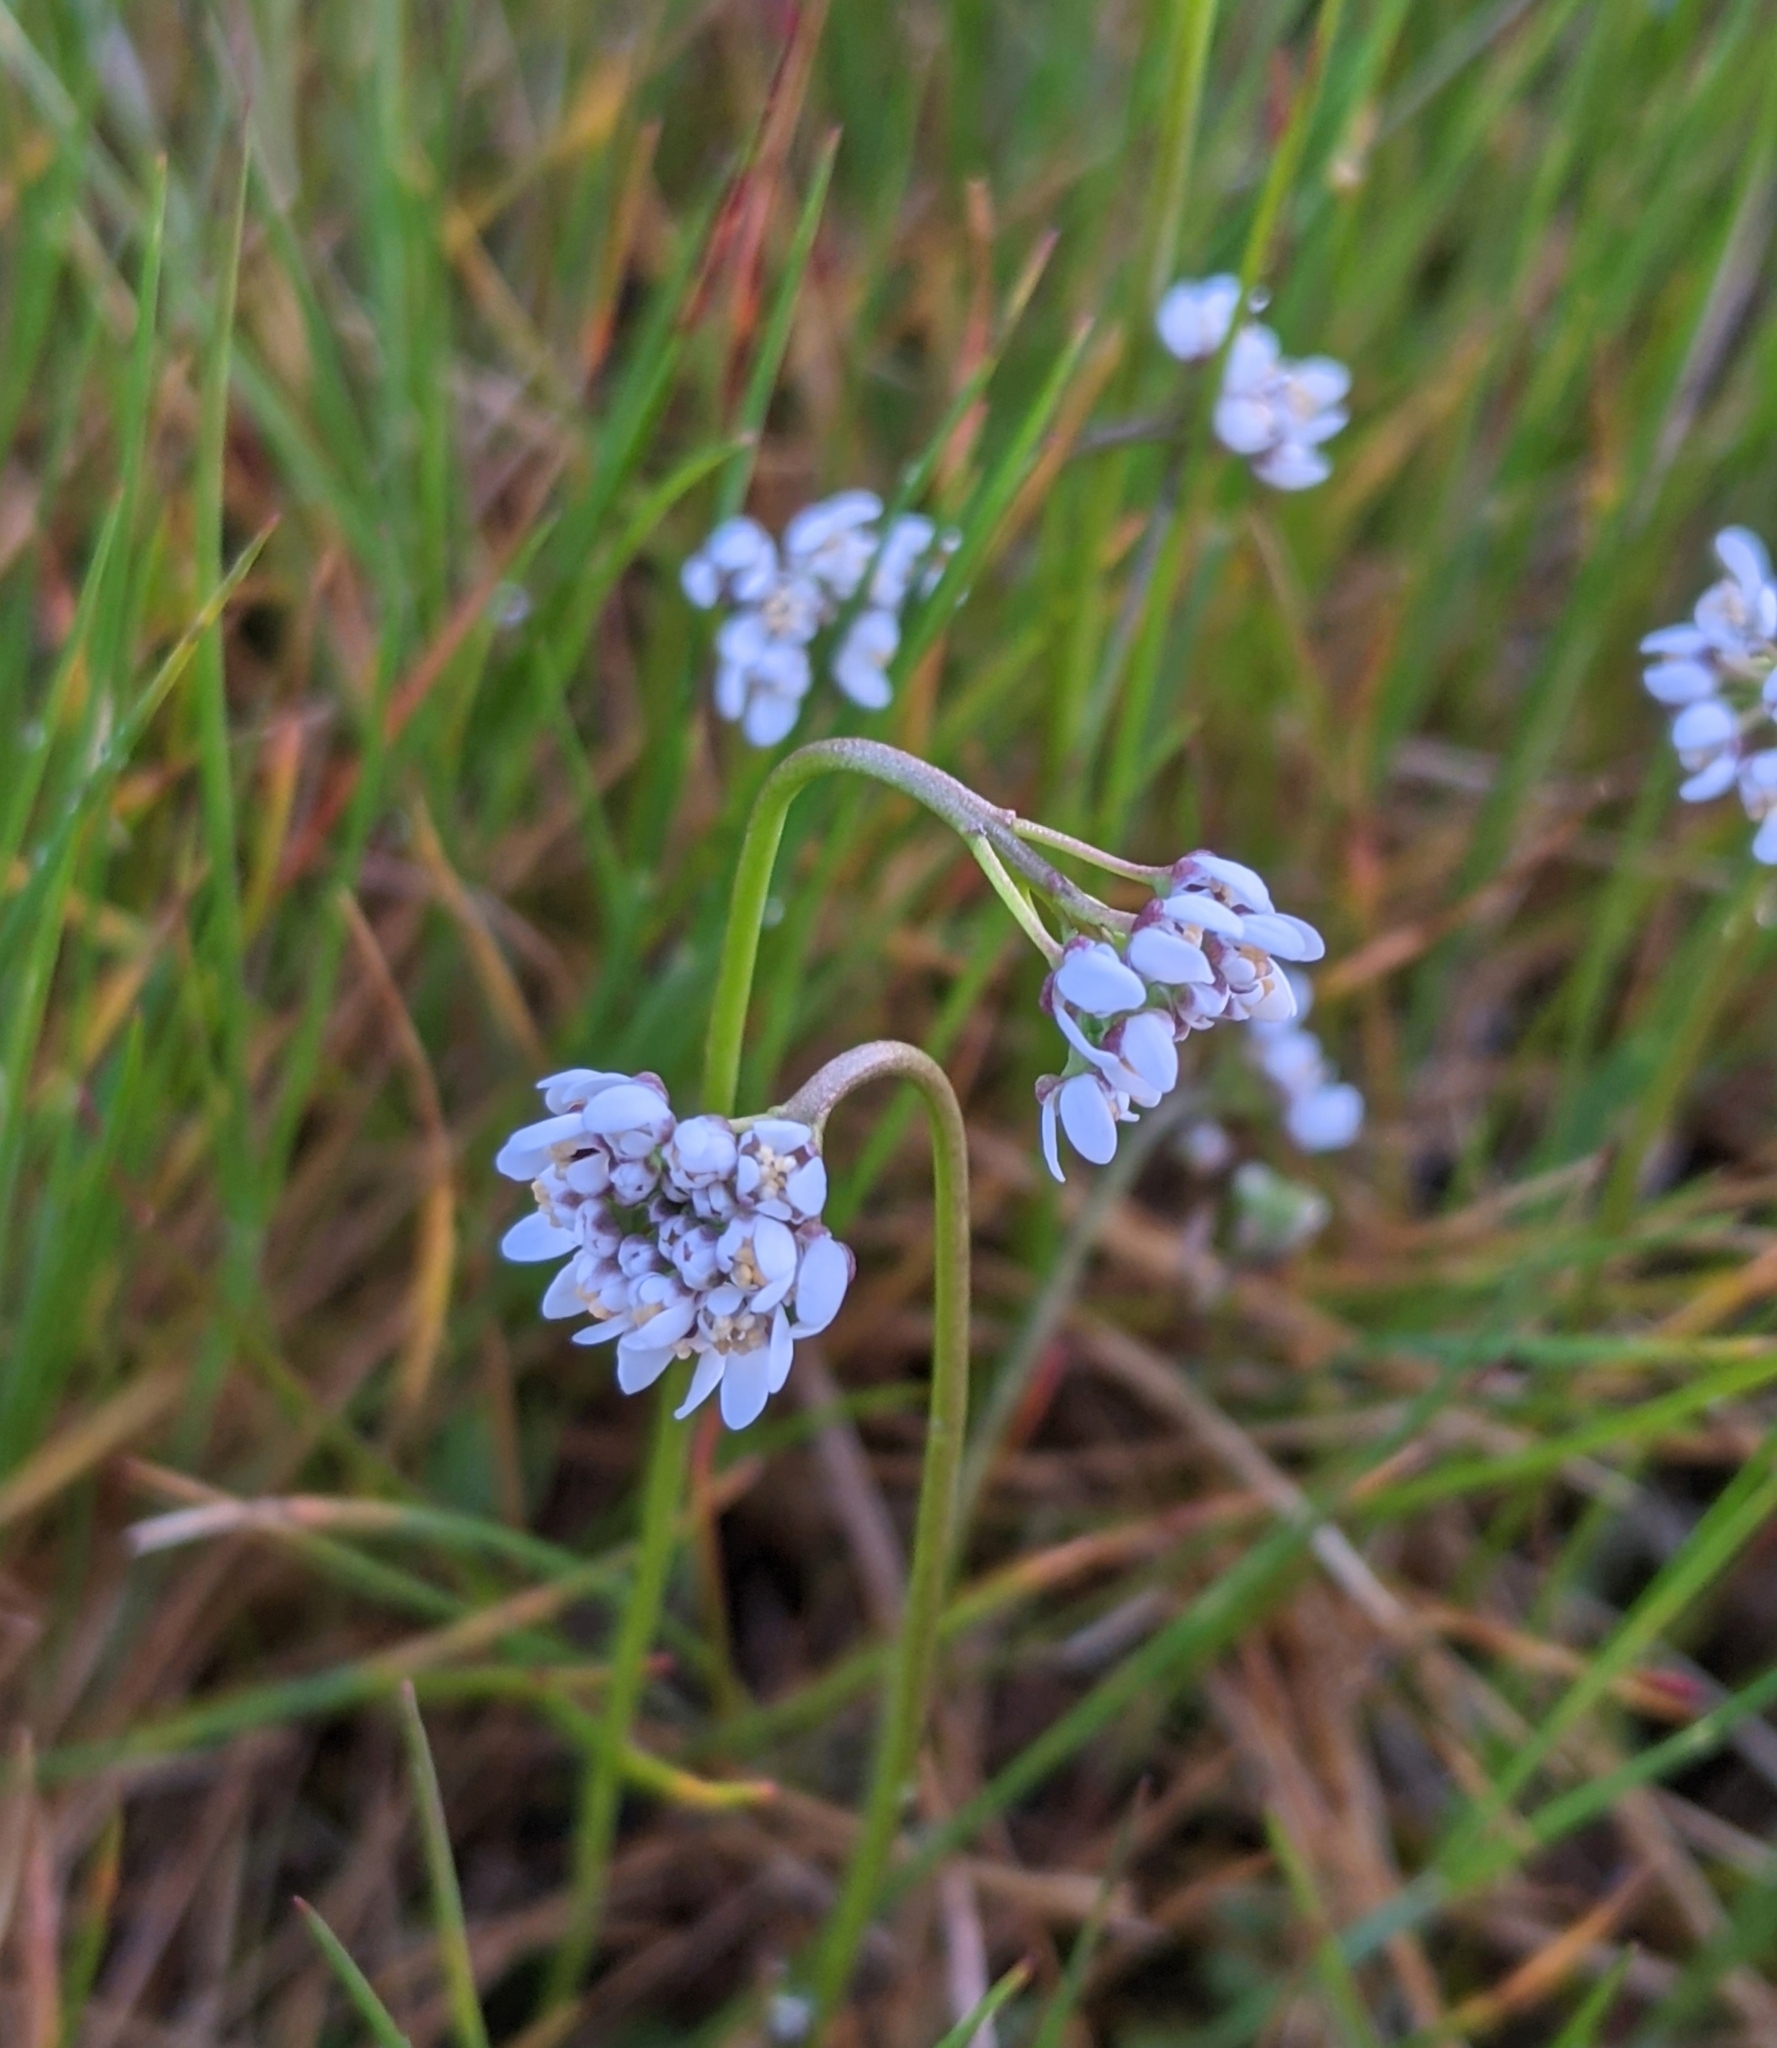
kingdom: Plantae
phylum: Tracheophyta
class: Magnoliopsida
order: Brassicales
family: Brassicaceae
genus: Teesdalia
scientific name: Teesdalia nudicaulis
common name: Shepherd's cress
